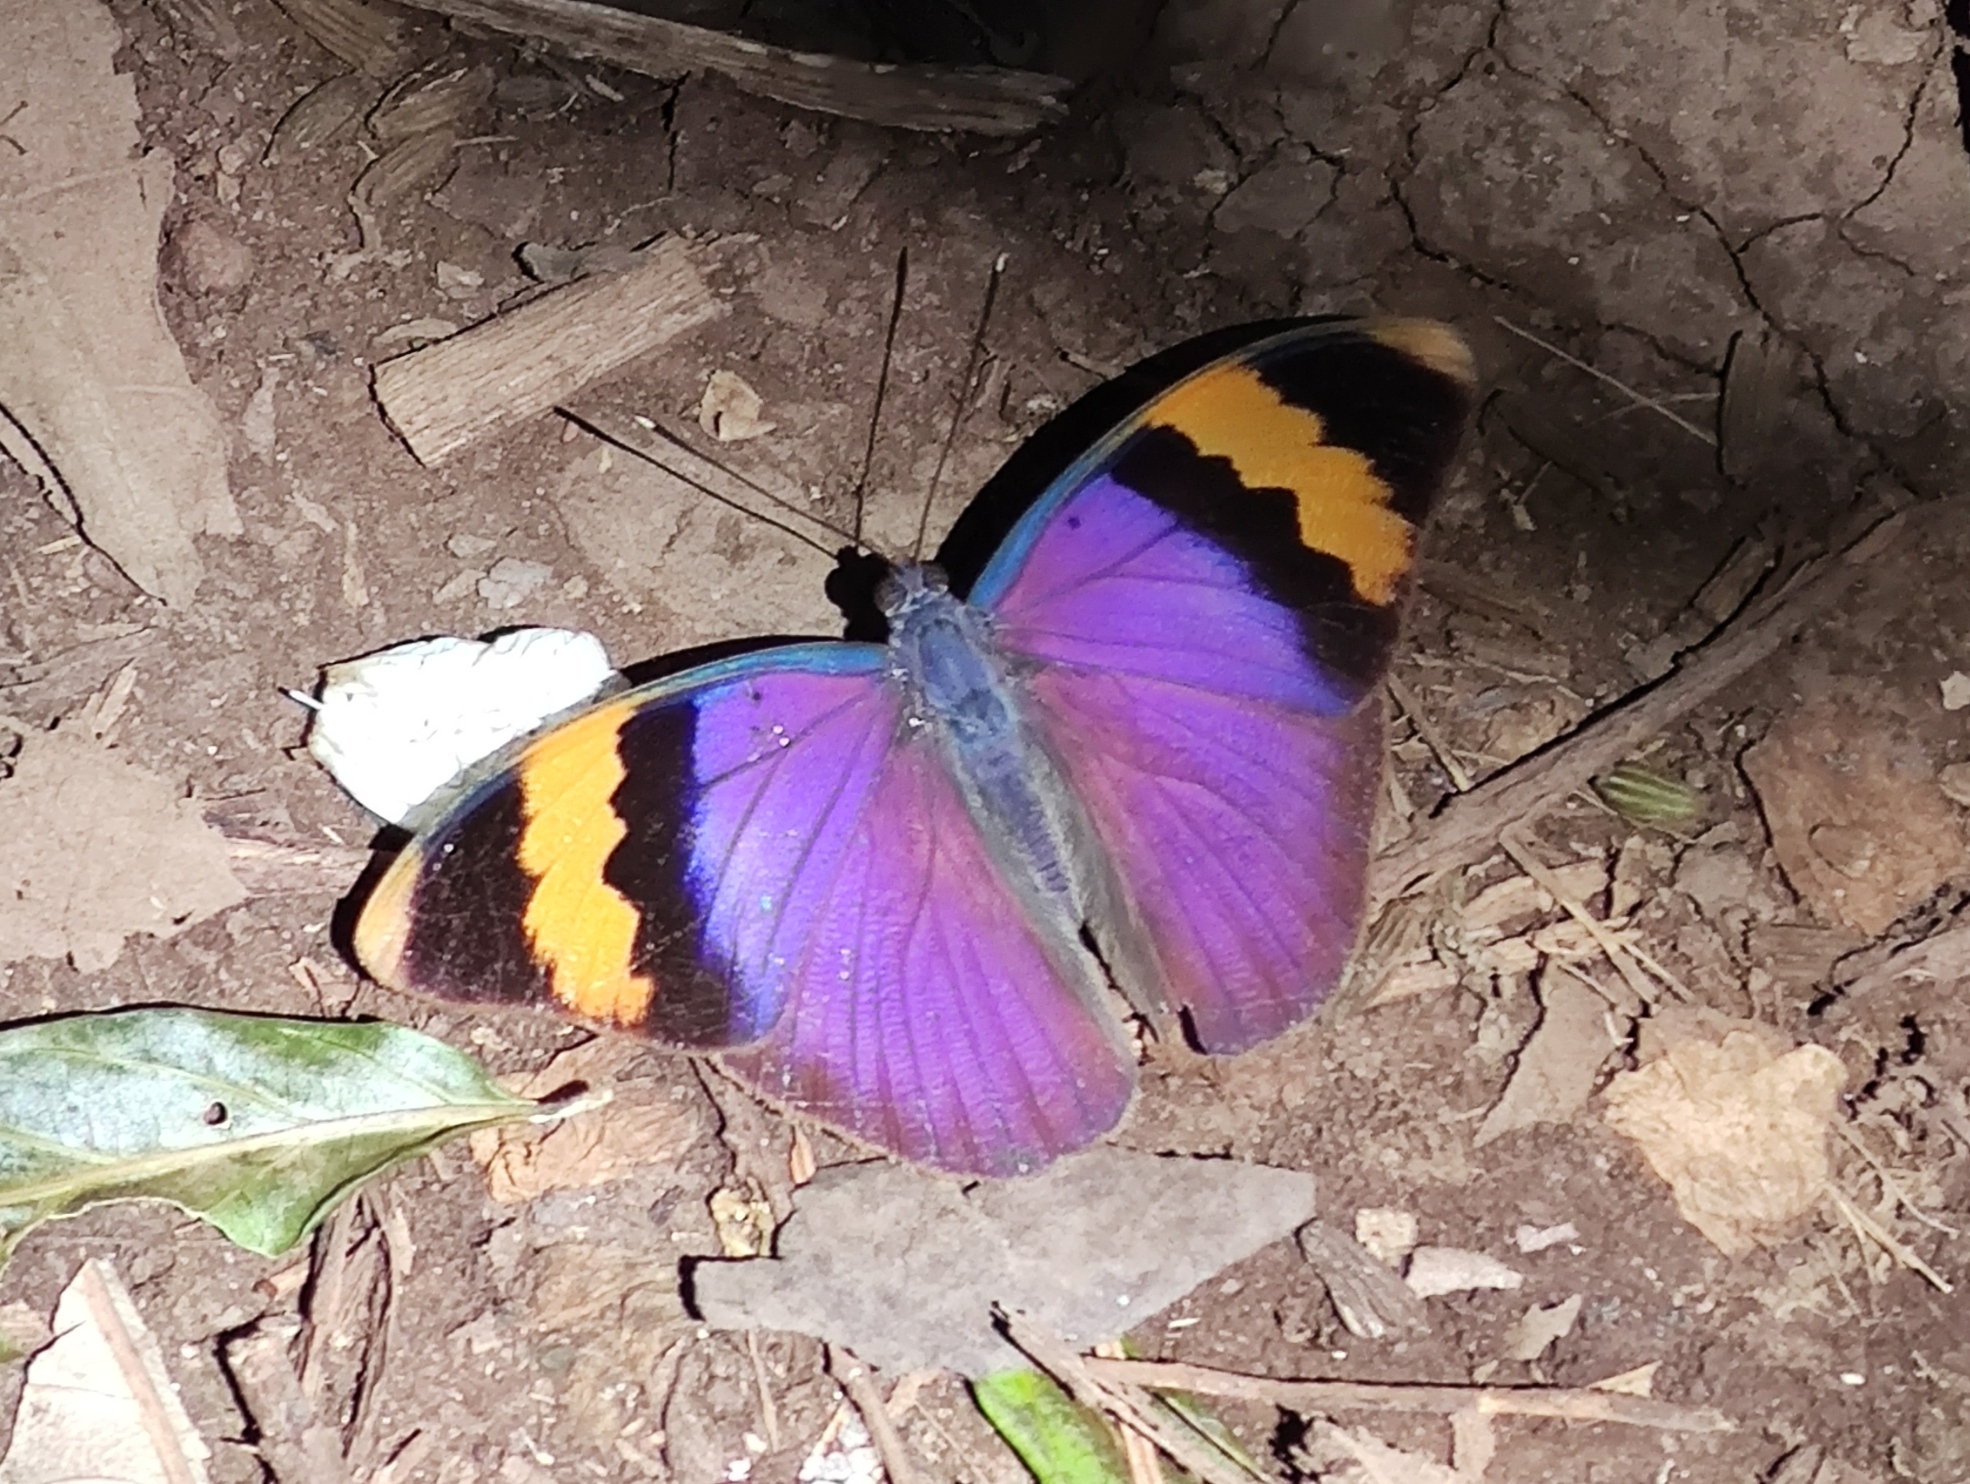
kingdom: Animalia
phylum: Arthropoda
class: Insecta
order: Lepidoptera
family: Nymphalidae
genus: Euphaedra
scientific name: Euphaedra neophron
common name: Gold-banded forester
